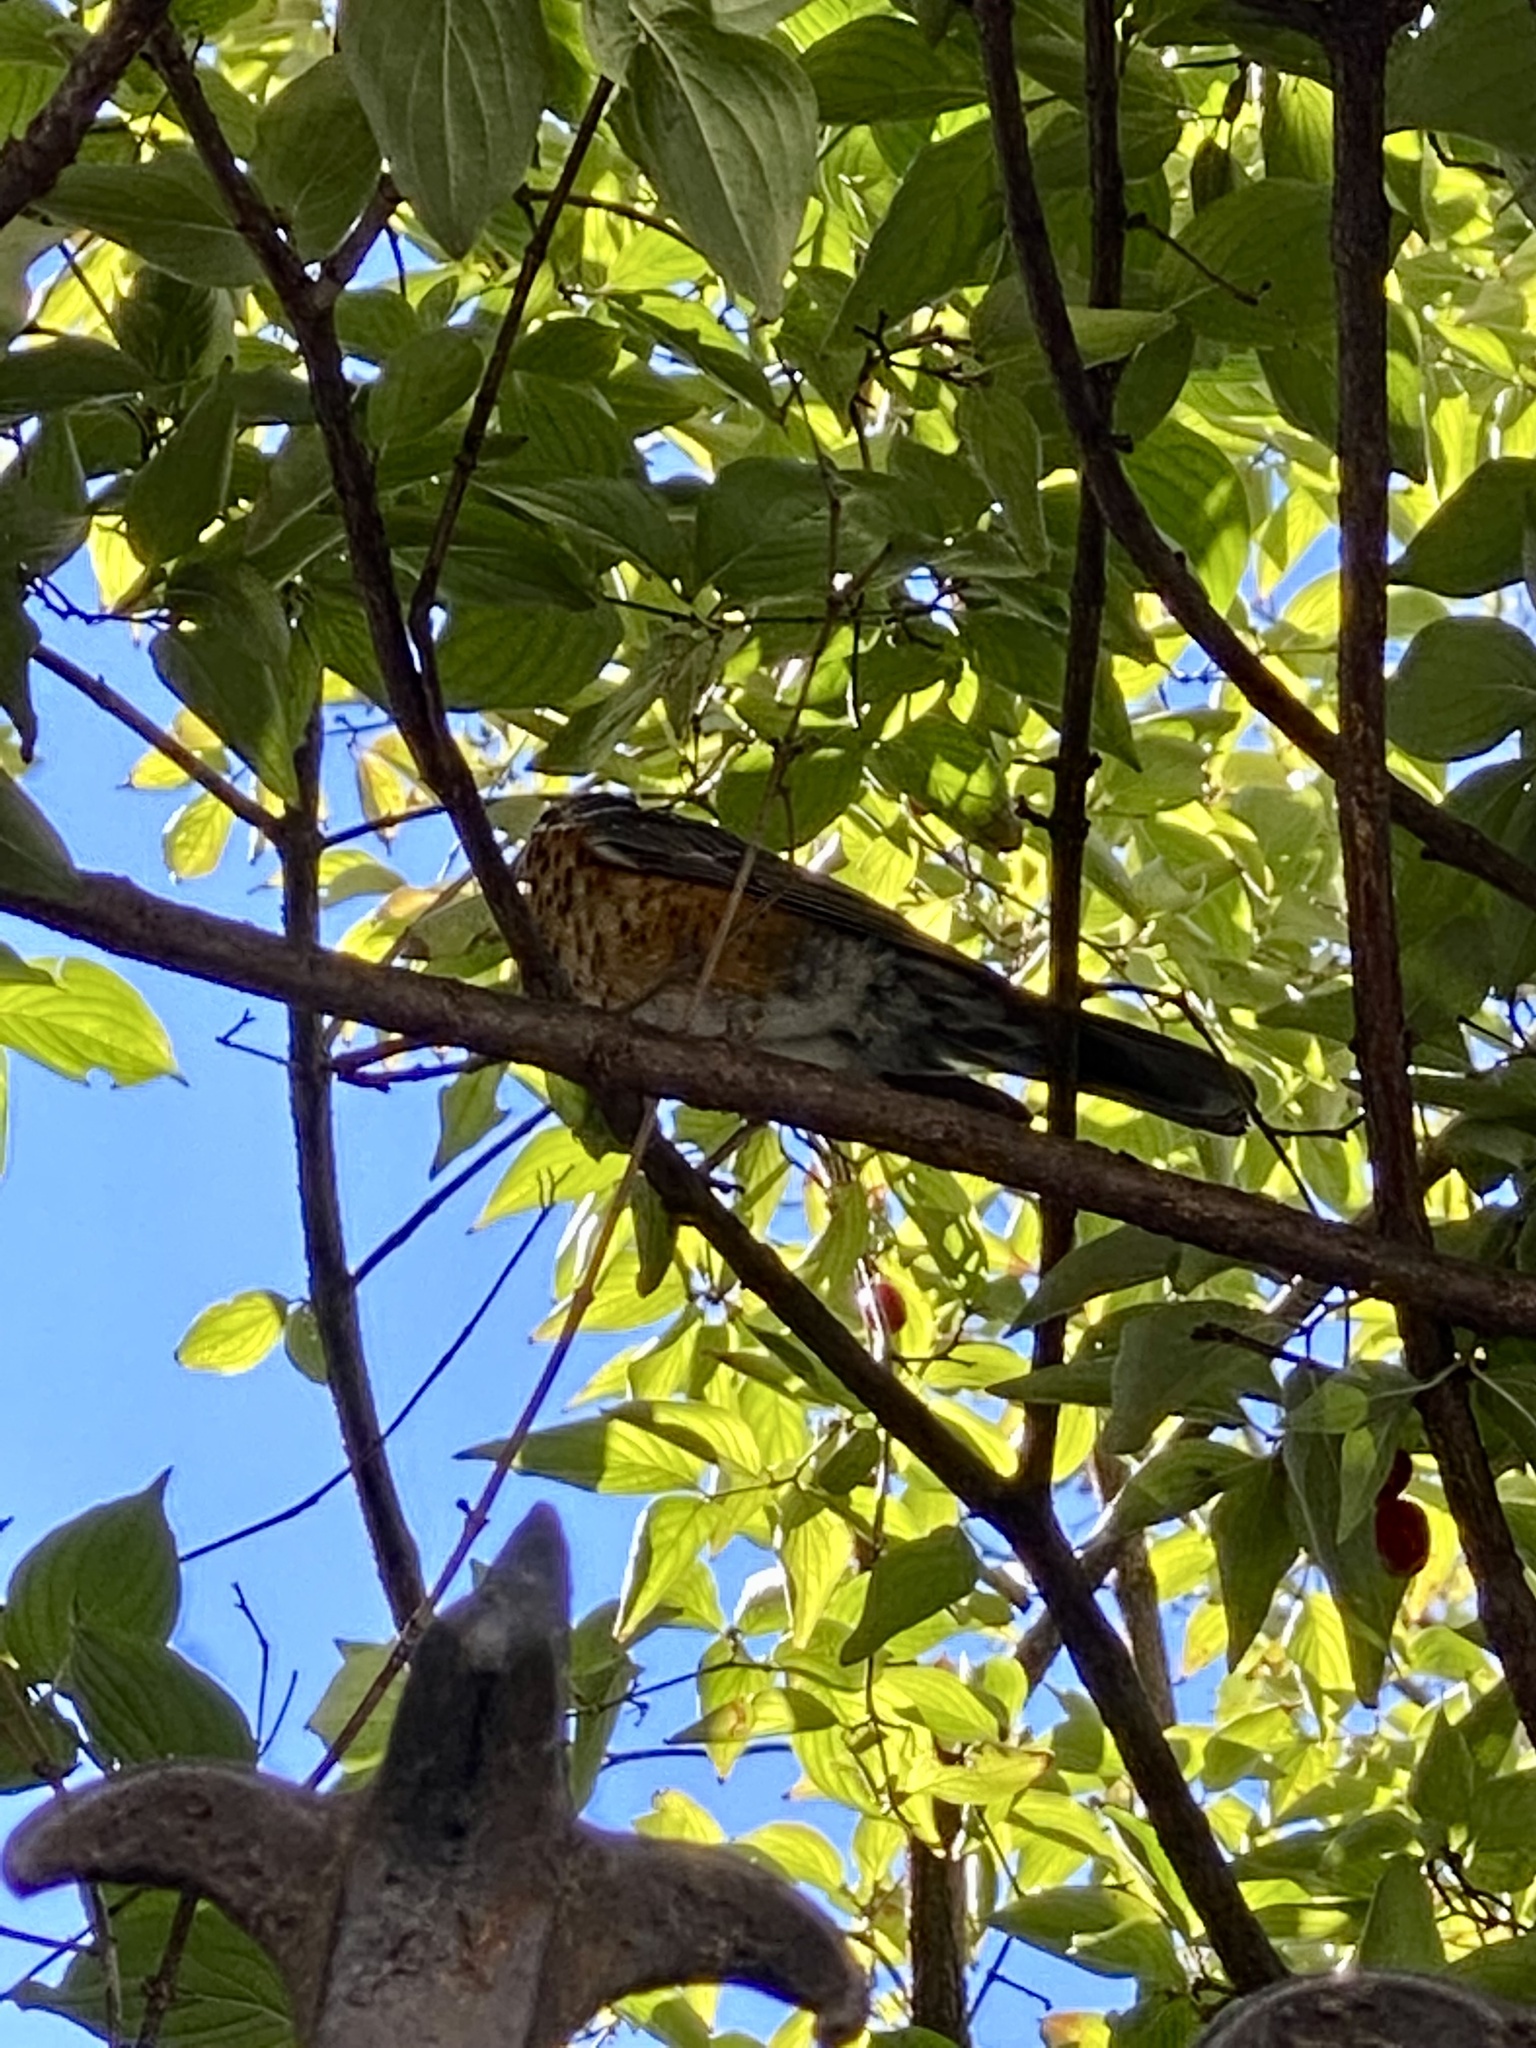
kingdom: Animalia
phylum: Chordata
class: Aves
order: Passeriformes
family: Turdidae
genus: Turdus
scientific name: Turdus migratorius
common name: American robin
